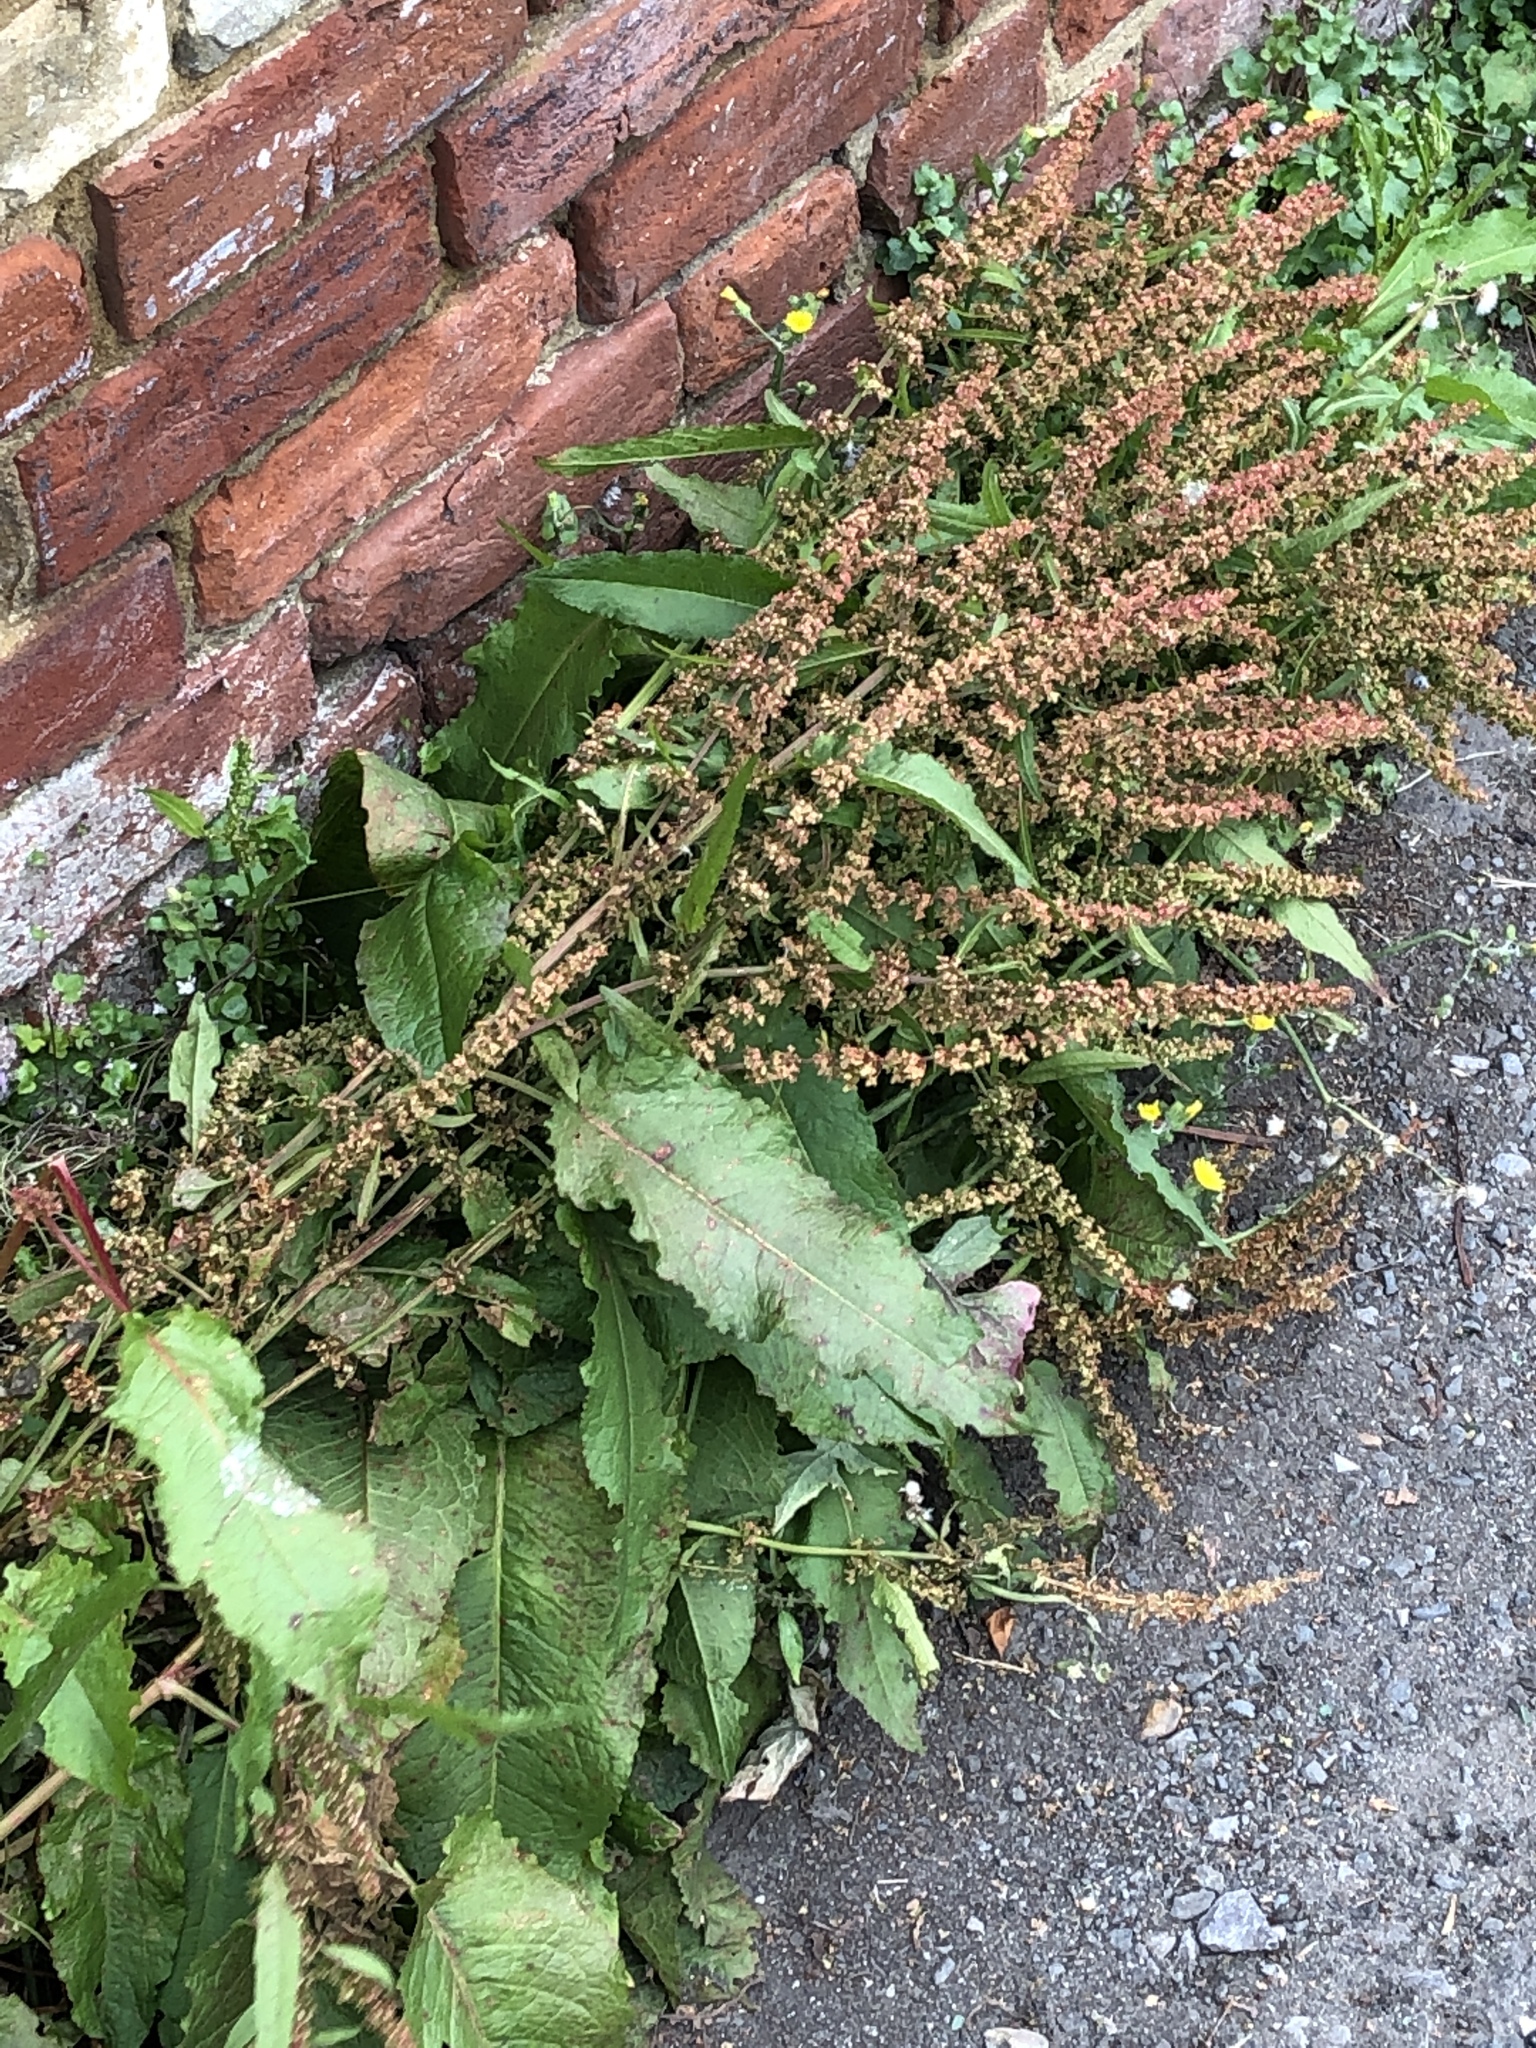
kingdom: Plantae
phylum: Tracheophyta
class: Magnoliopsida
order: Caryophyllales
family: Polygonaceae
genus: Rumex
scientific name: Rumex obtusifolius
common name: Bitter dock
